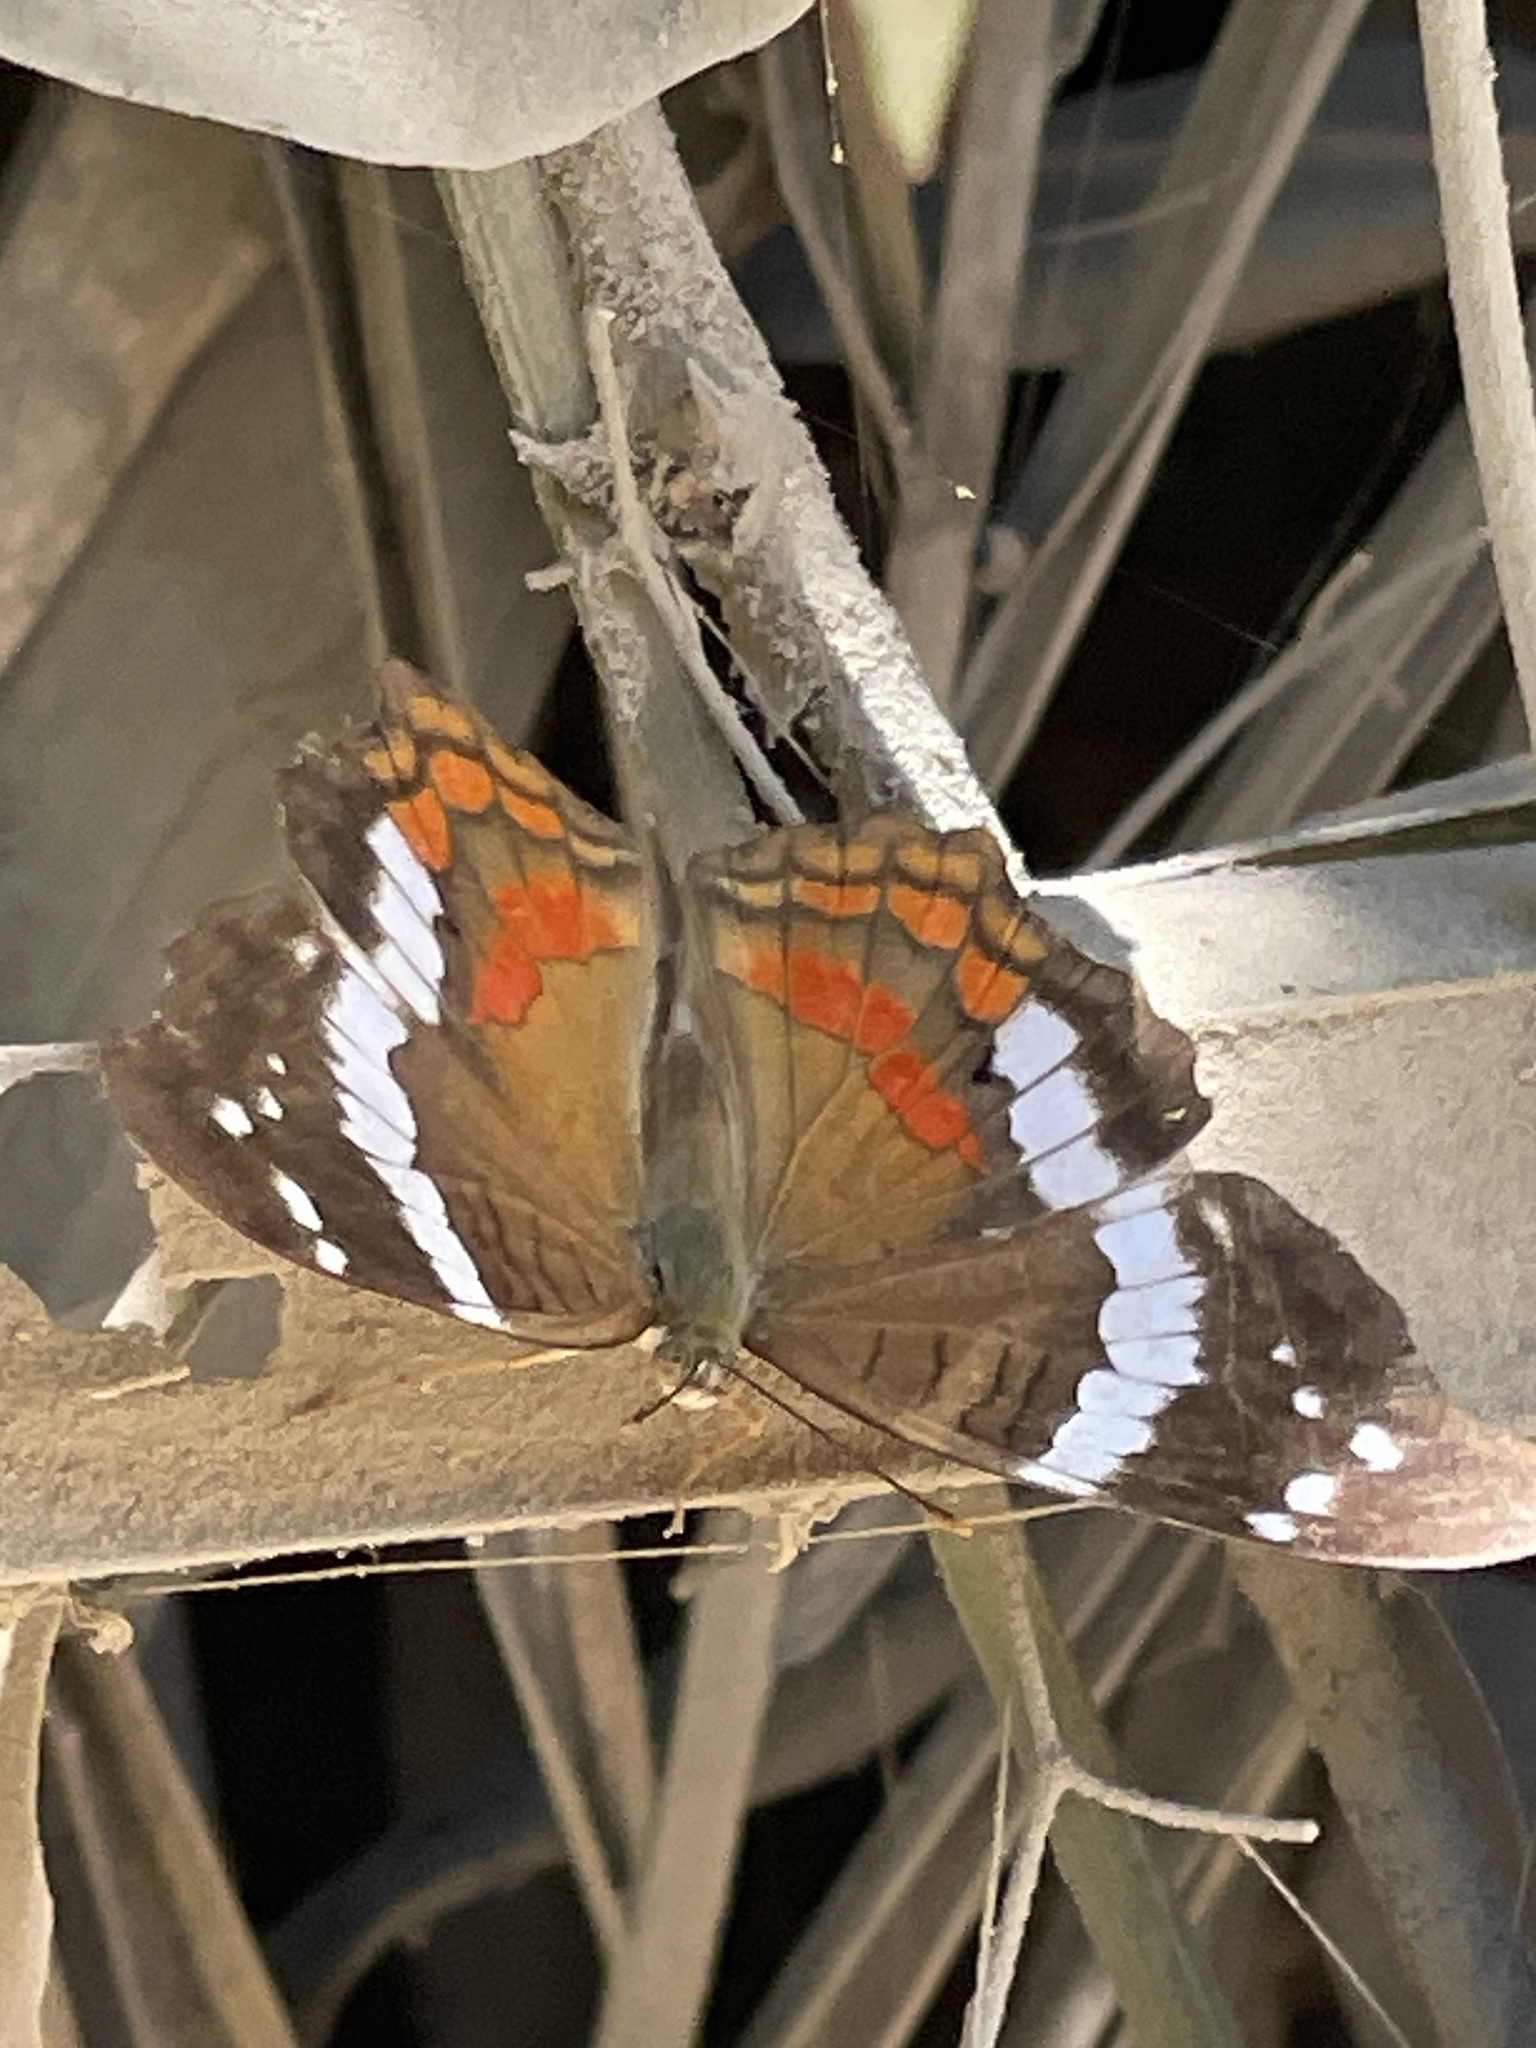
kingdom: Animalia
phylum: Arthropoda
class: Insecta
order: Lepidoptera
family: Nymphalidae
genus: Anartia
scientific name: Anartia fatima
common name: Banded peacock
